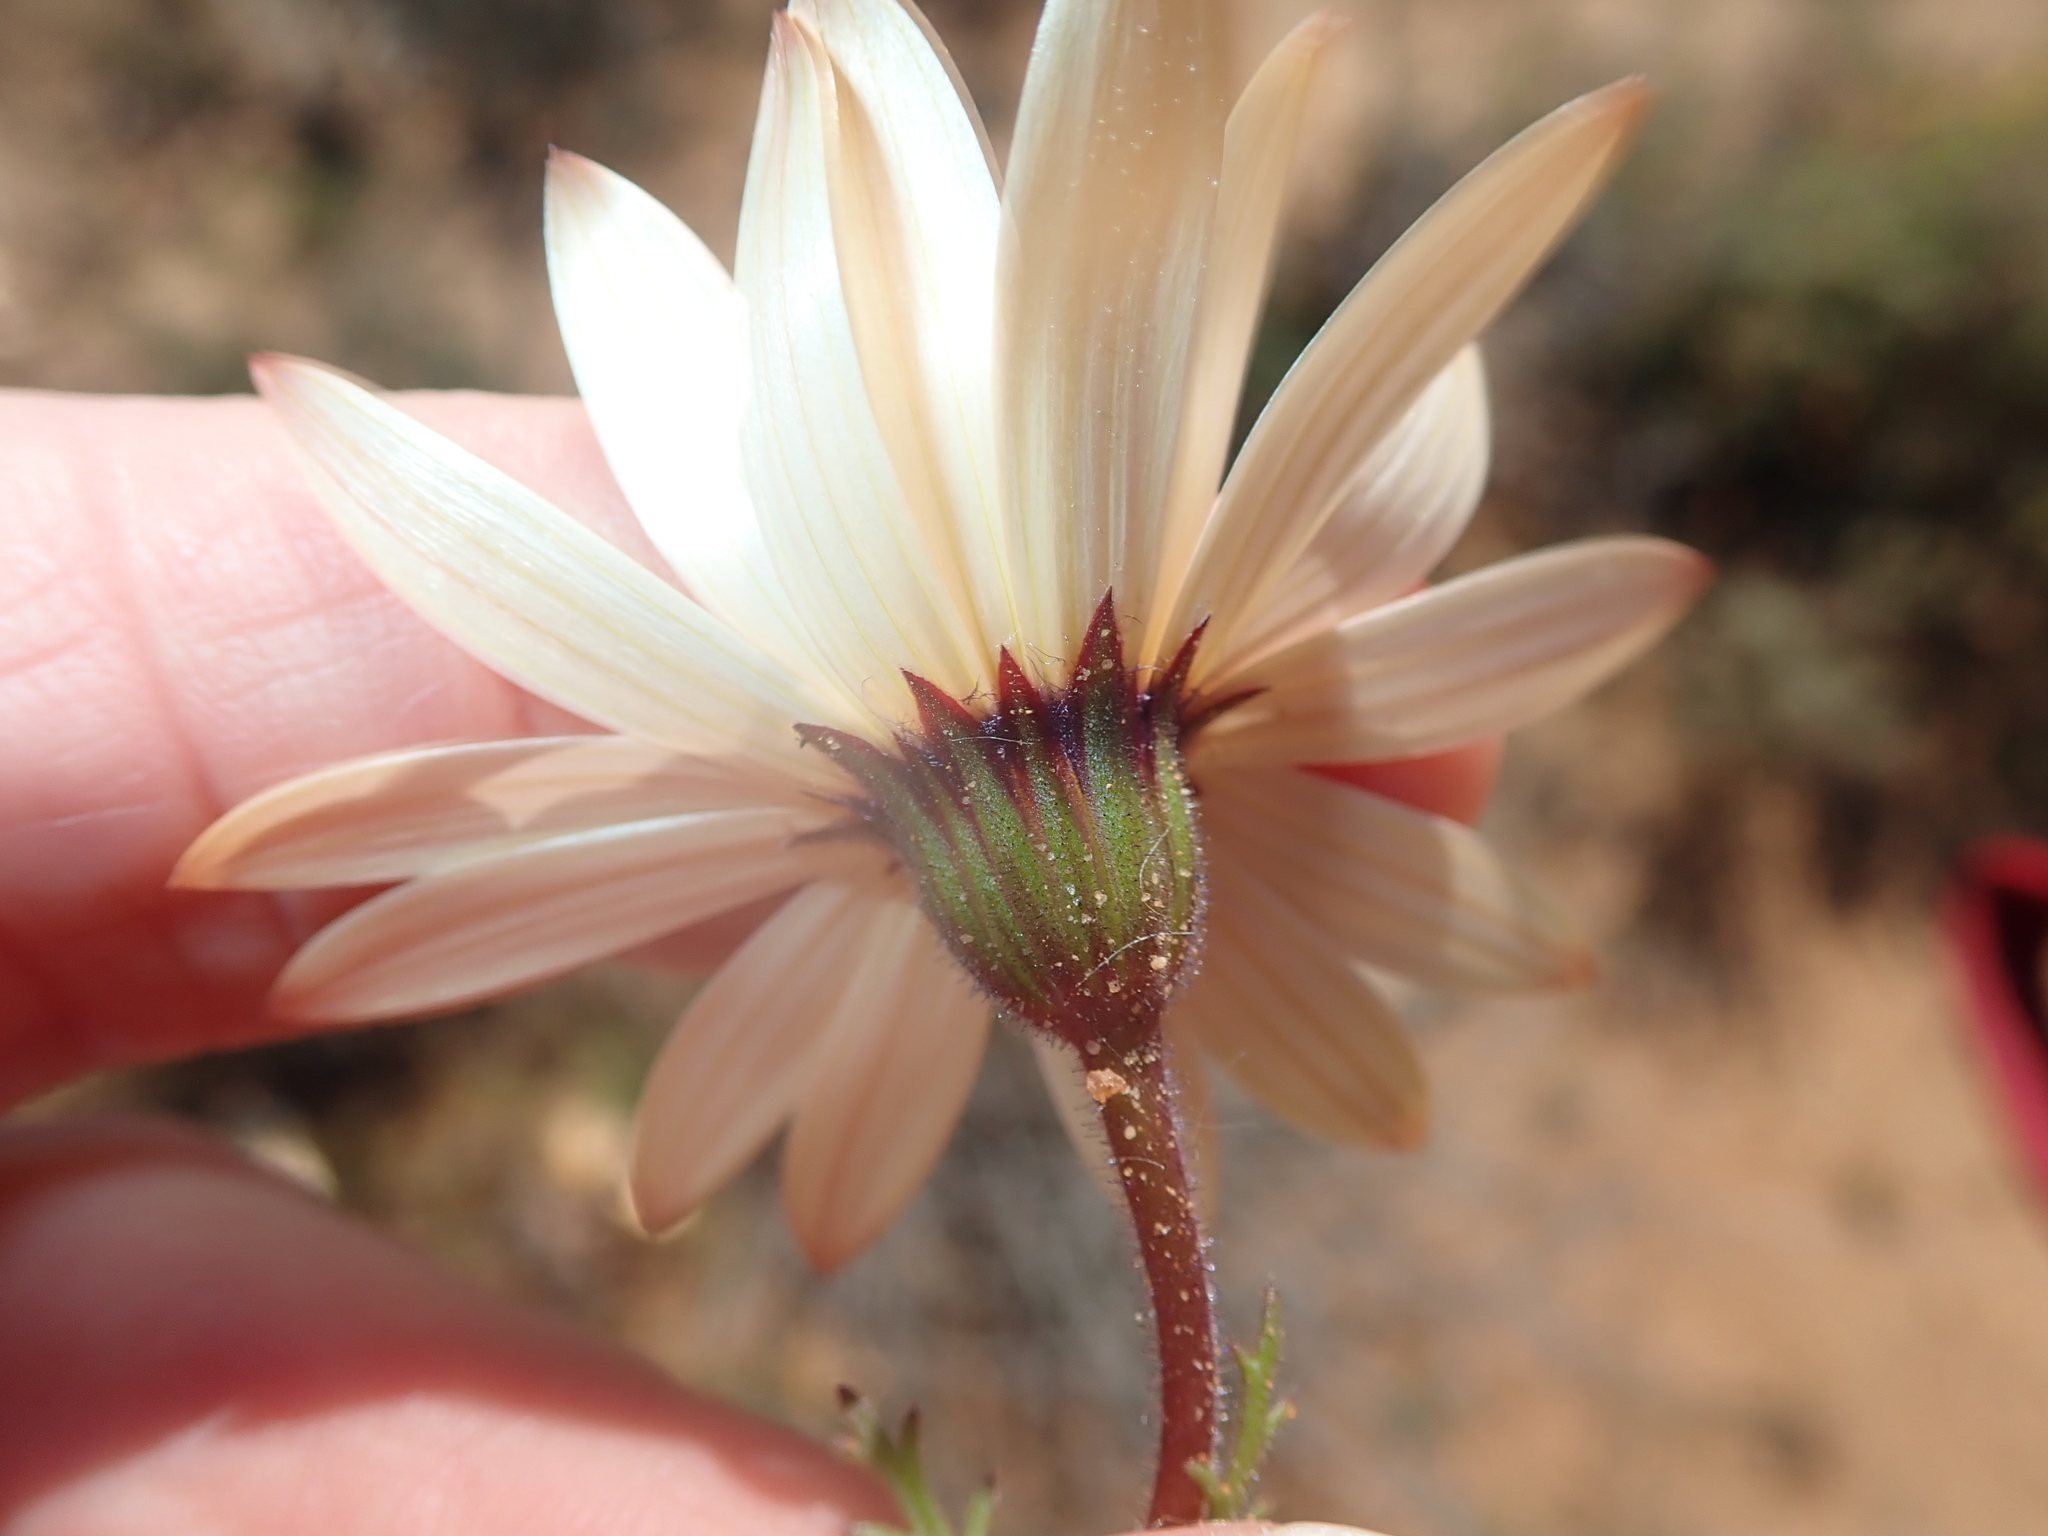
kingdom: Plantae
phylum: Tracheophyta
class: Magnoliopsida
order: Asterales
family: Asteraceae
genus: Dimorphotheca
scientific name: Dimorphotheca pinnata
